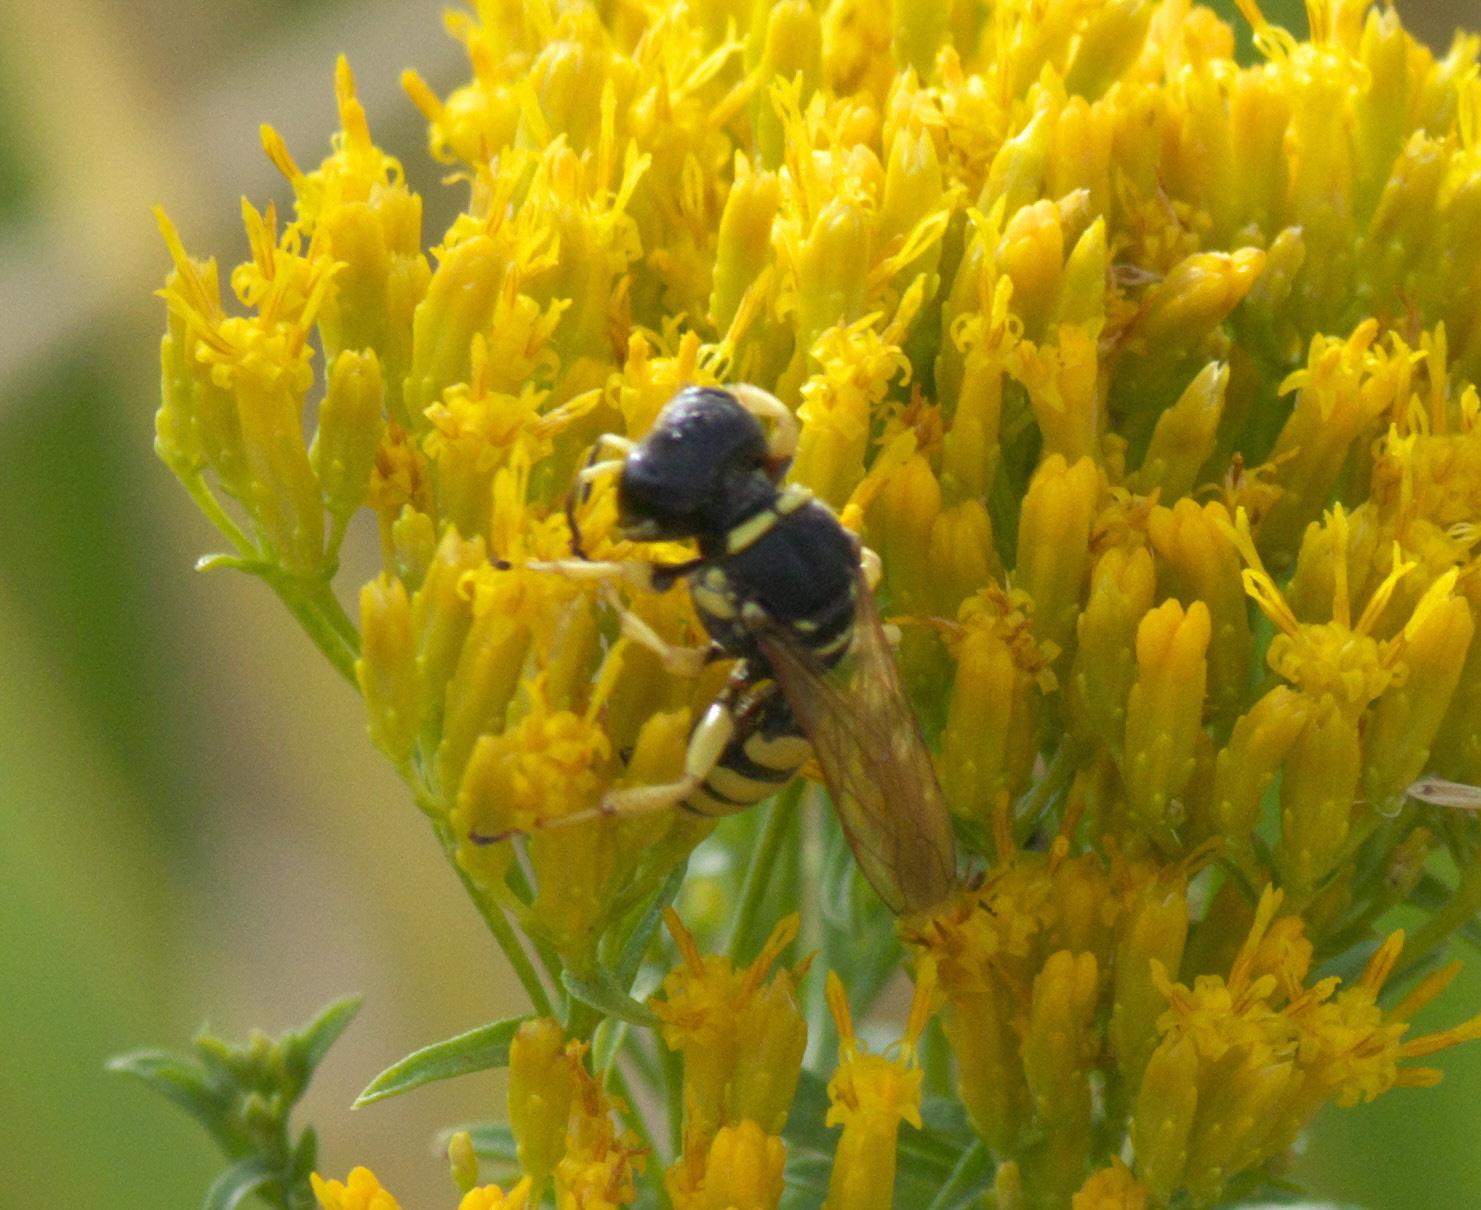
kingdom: Animalia
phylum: Arthropoda
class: Insecta
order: Hymenoptera
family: Crabronidae
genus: Ectemnius
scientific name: Ectemnius dilectus
